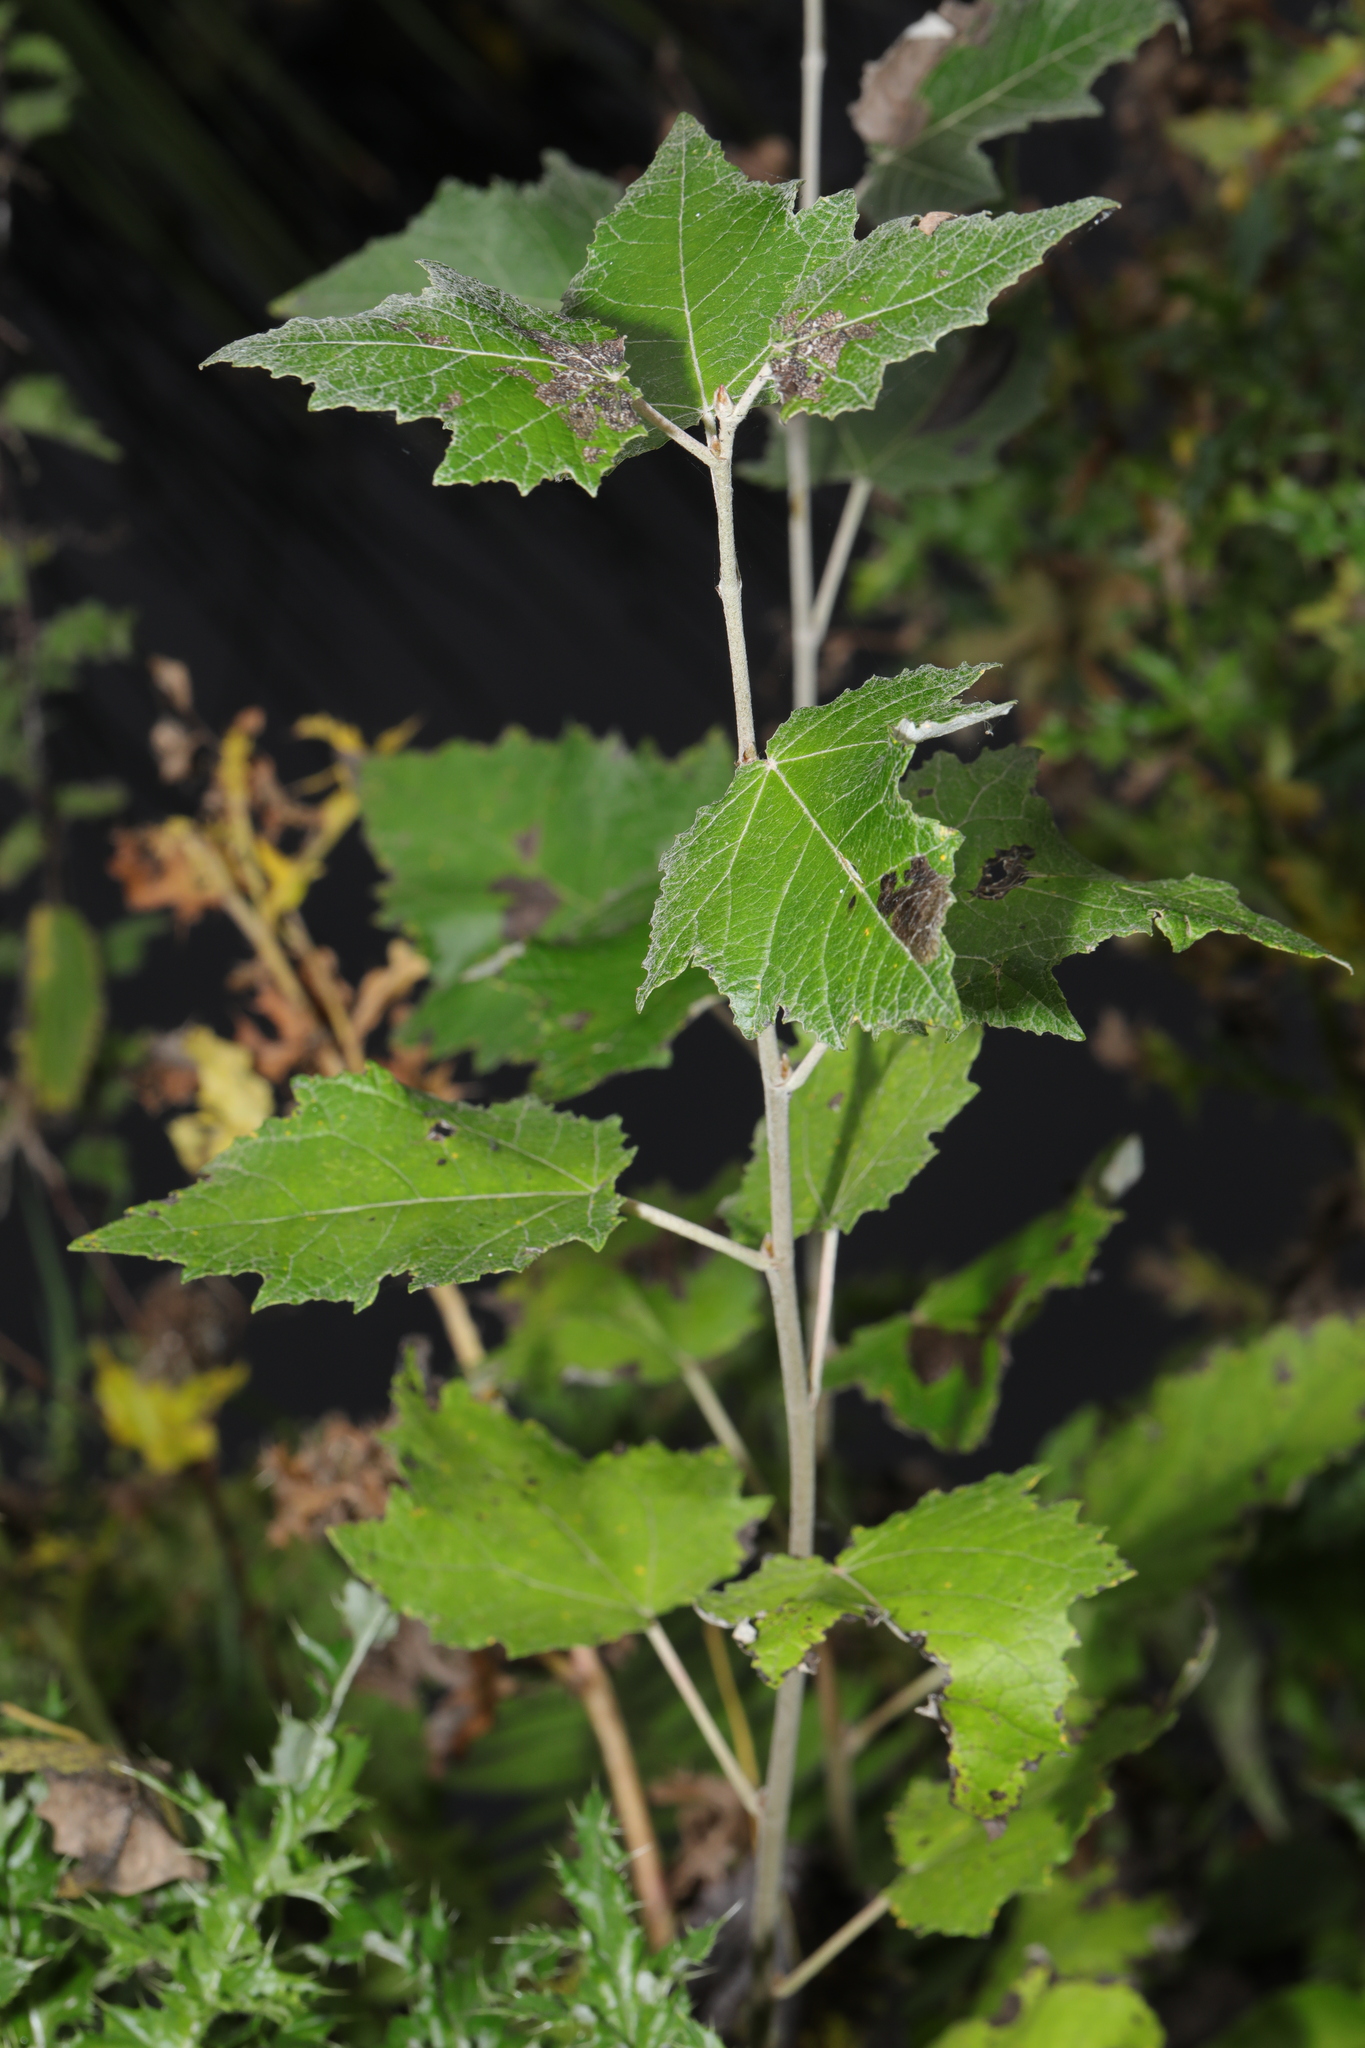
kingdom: Plantae
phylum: Tracheophyta
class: Magnoliopsida
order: Malpighiales
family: Salicaceae
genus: Populus
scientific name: Populus canescens
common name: Gray poplar
